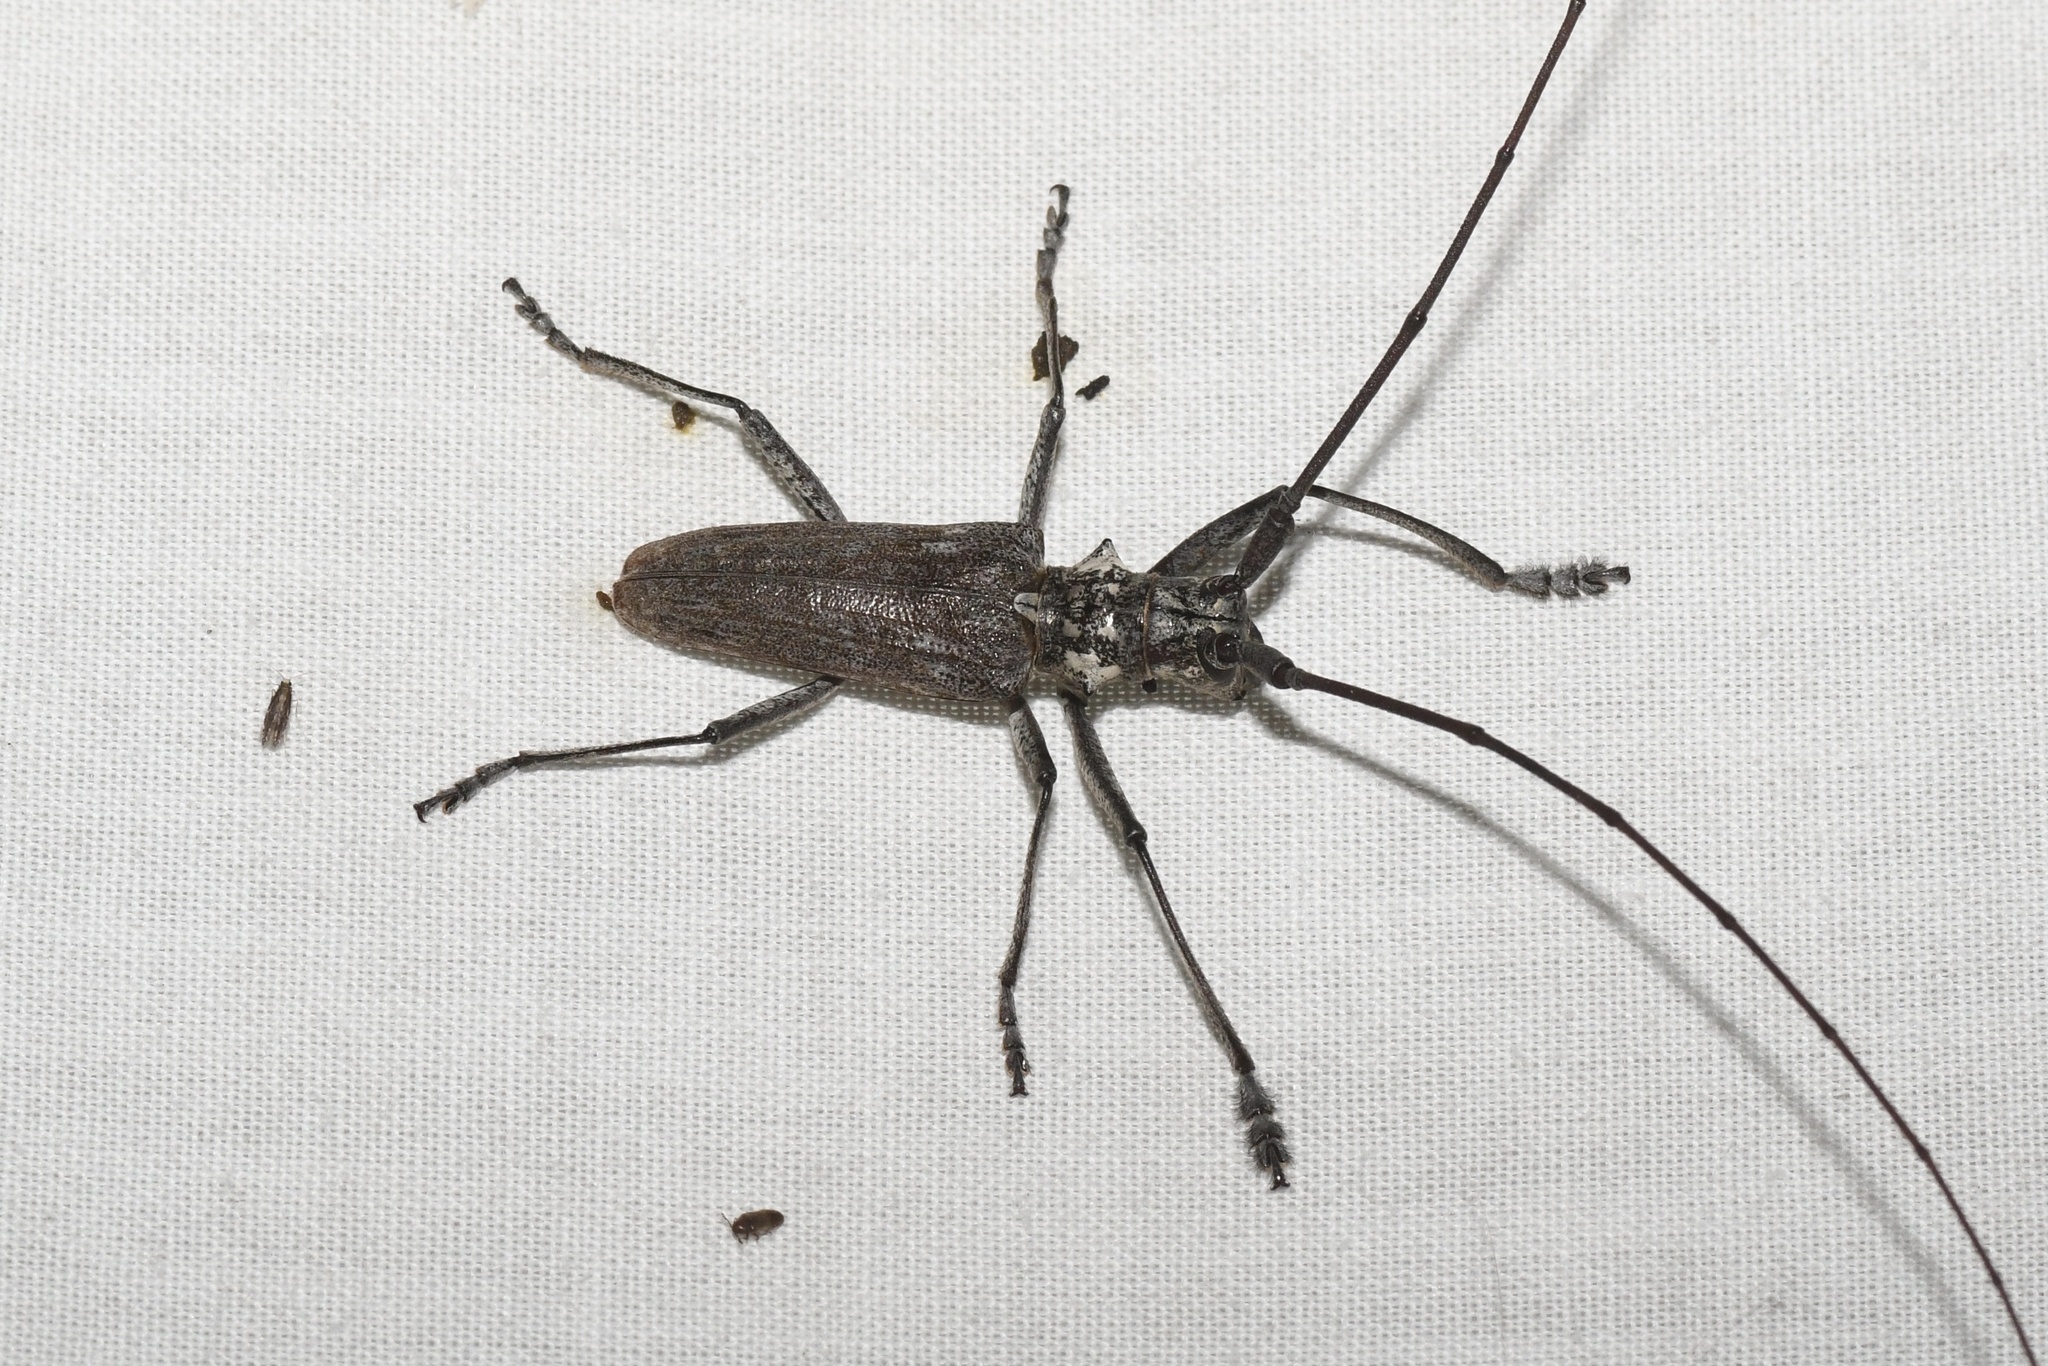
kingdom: Animalia
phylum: Arthropoda
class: Insecta
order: Coleoptera
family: Cerambycidae
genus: Monochamus
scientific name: Monochamus notatus
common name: Northeastern pine sawyer beetle
